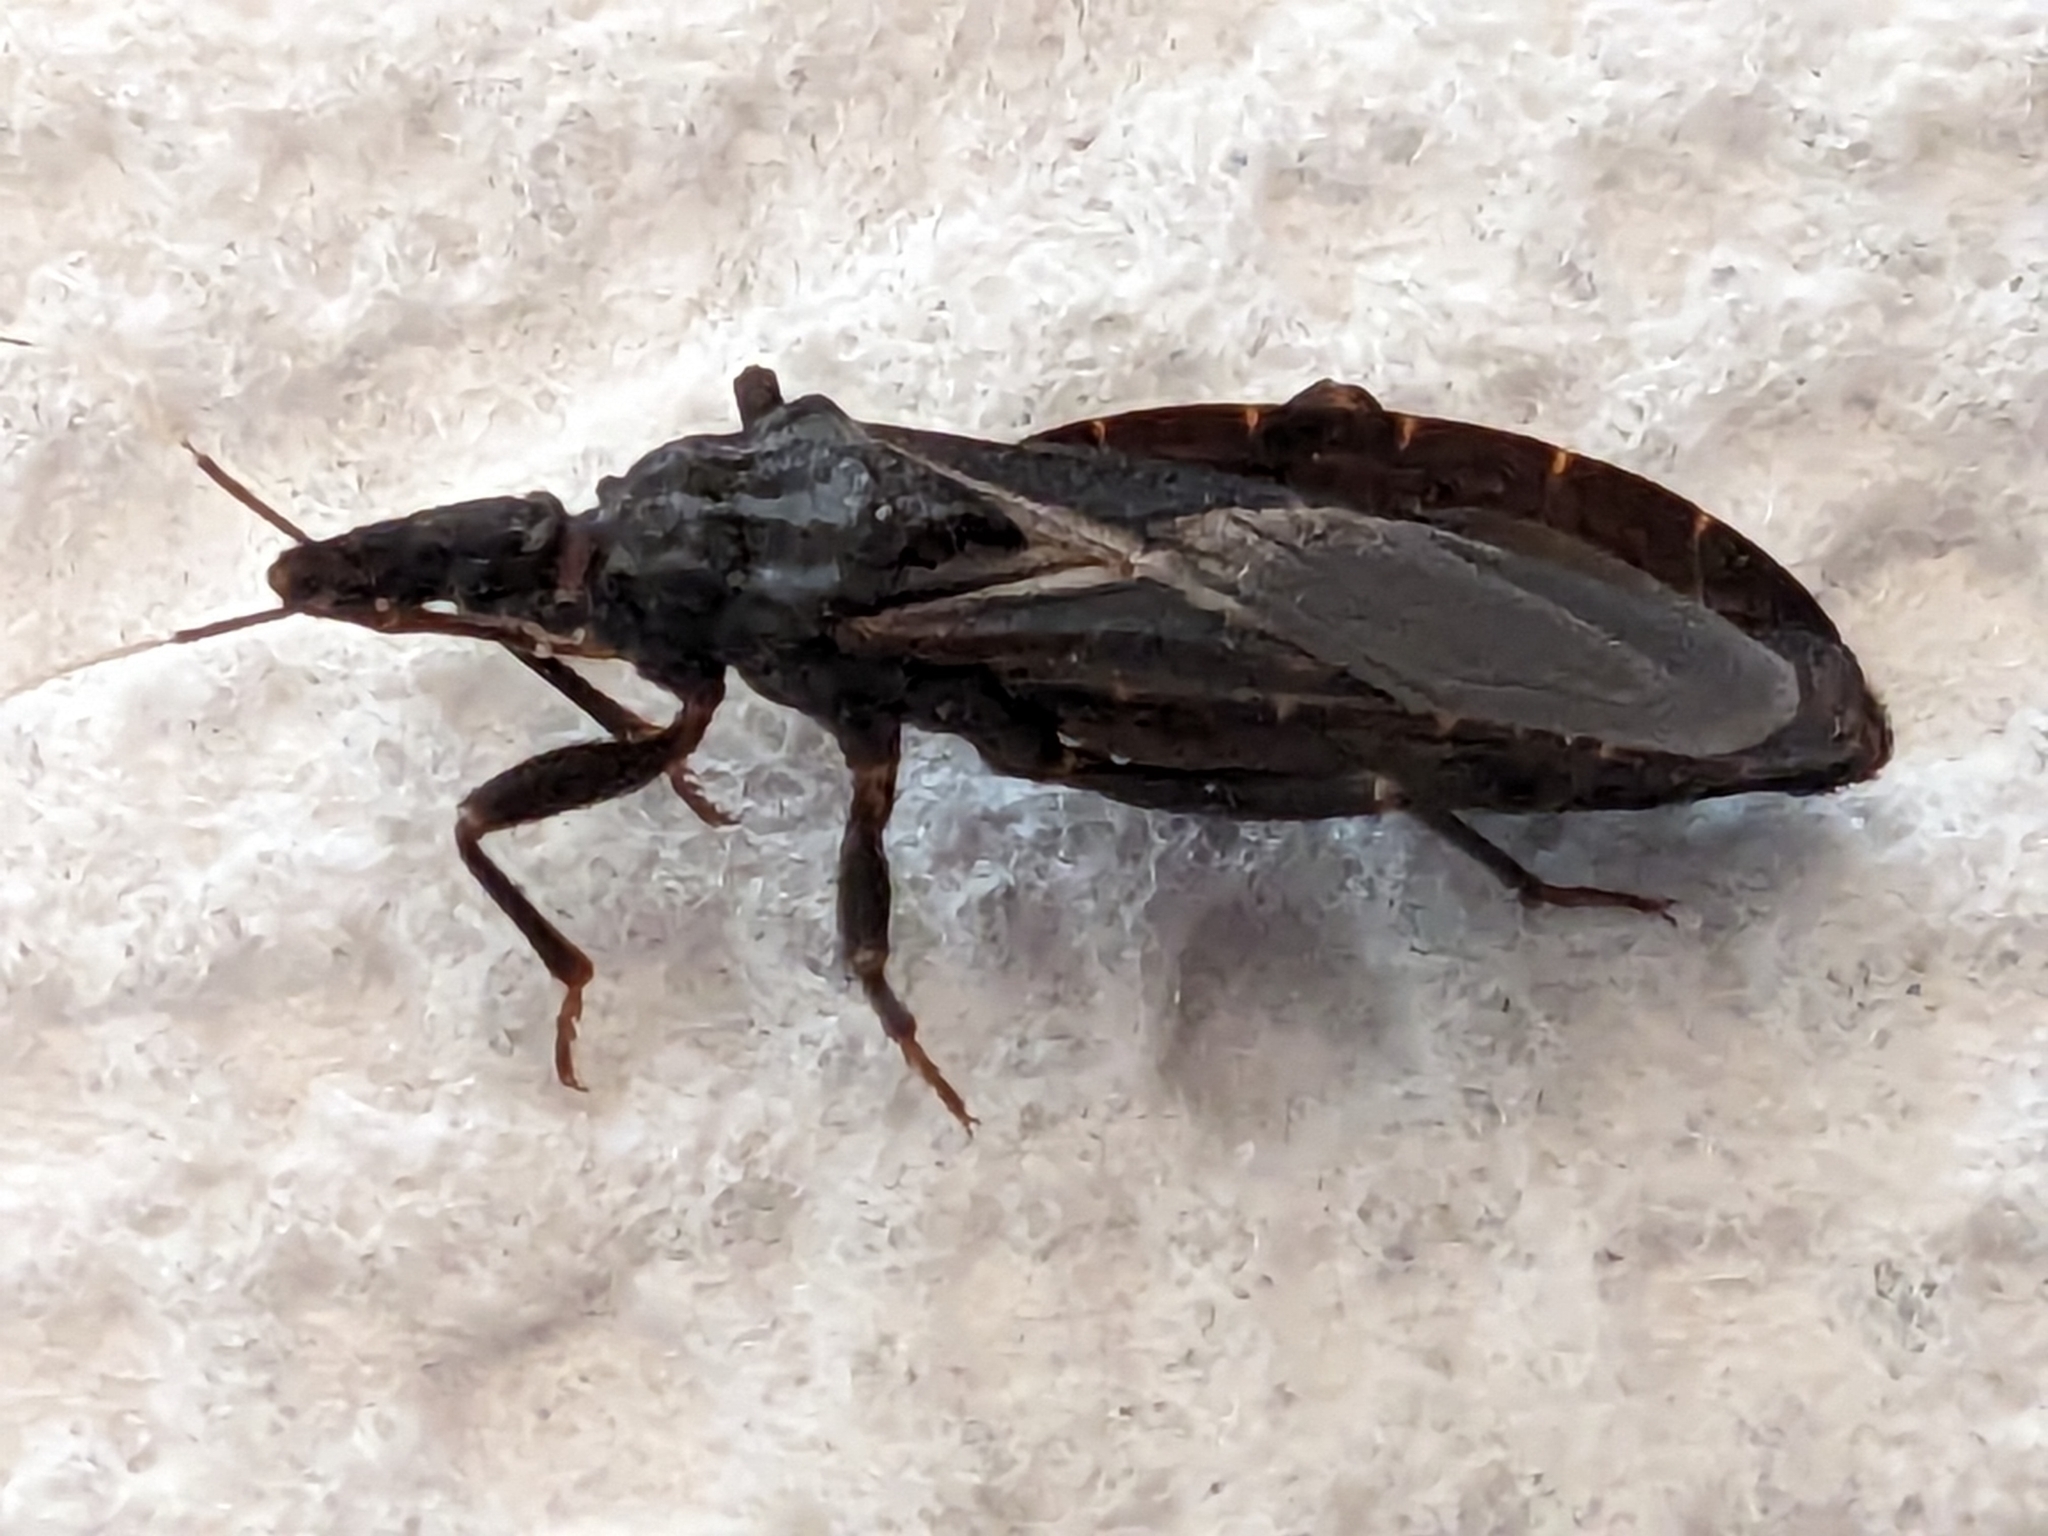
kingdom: Animalia
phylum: Arthropoda
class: Insecta
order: Hemiptera
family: Reduviidae
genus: Triatoma
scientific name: Triatoma protracta
